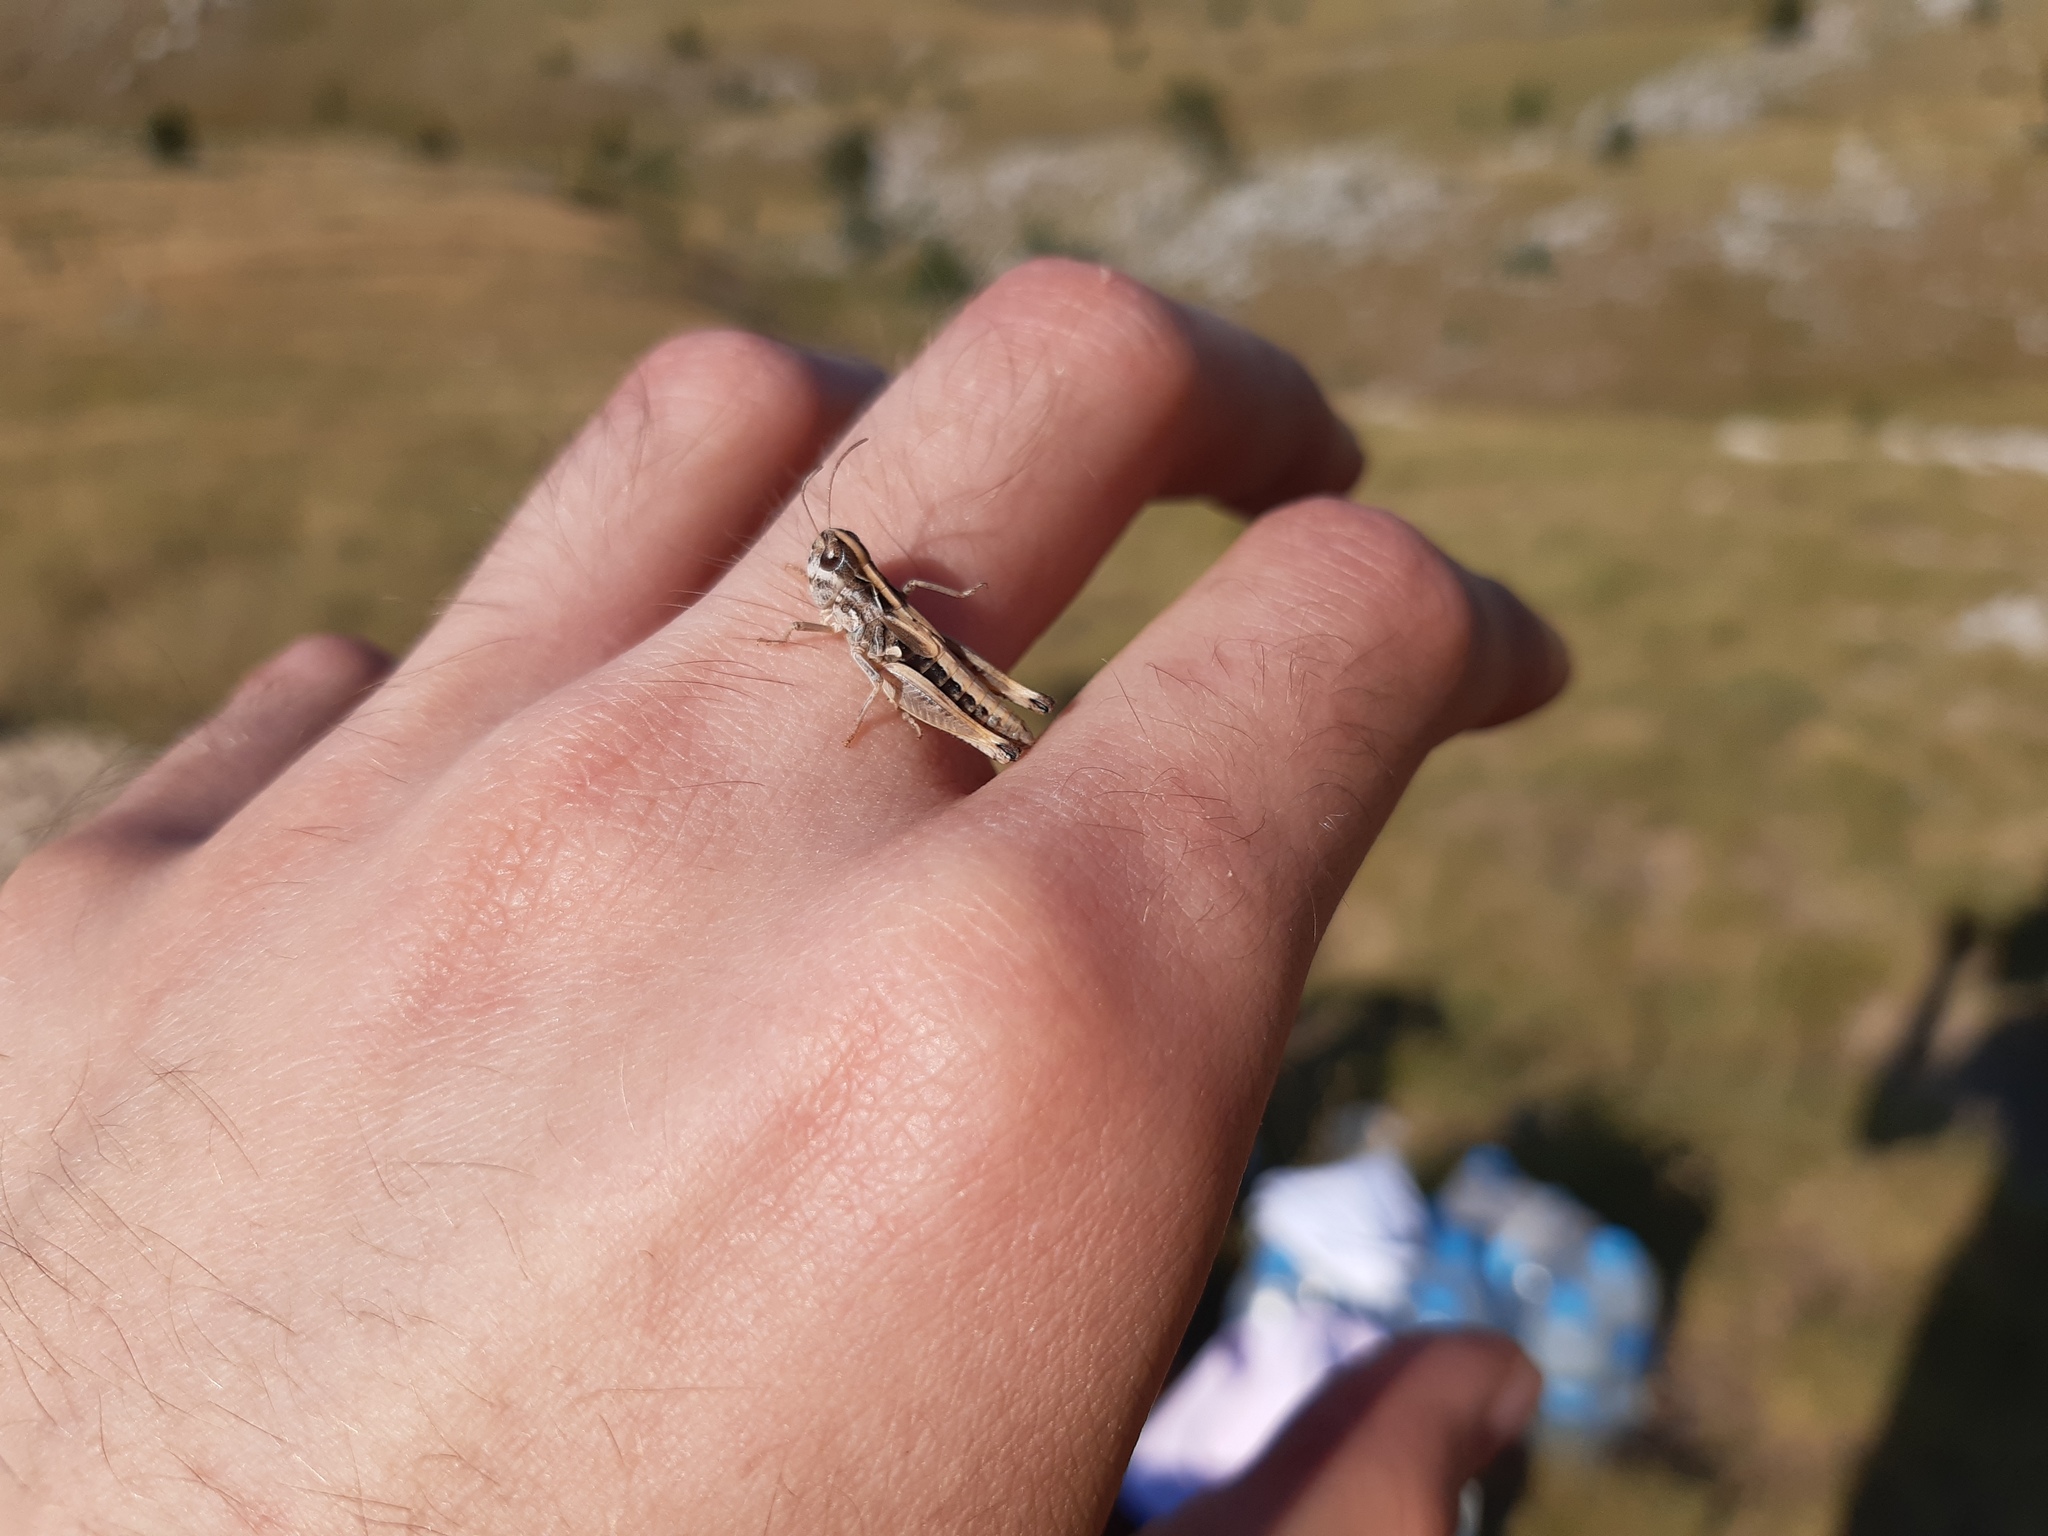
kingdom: Animalia
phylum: Arthropoda
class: Insecta
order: Orthoptera
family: Acrididae
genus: Rammeihippus
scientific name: Rammeihippus dinaricus
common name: Dinarian grasshopper
